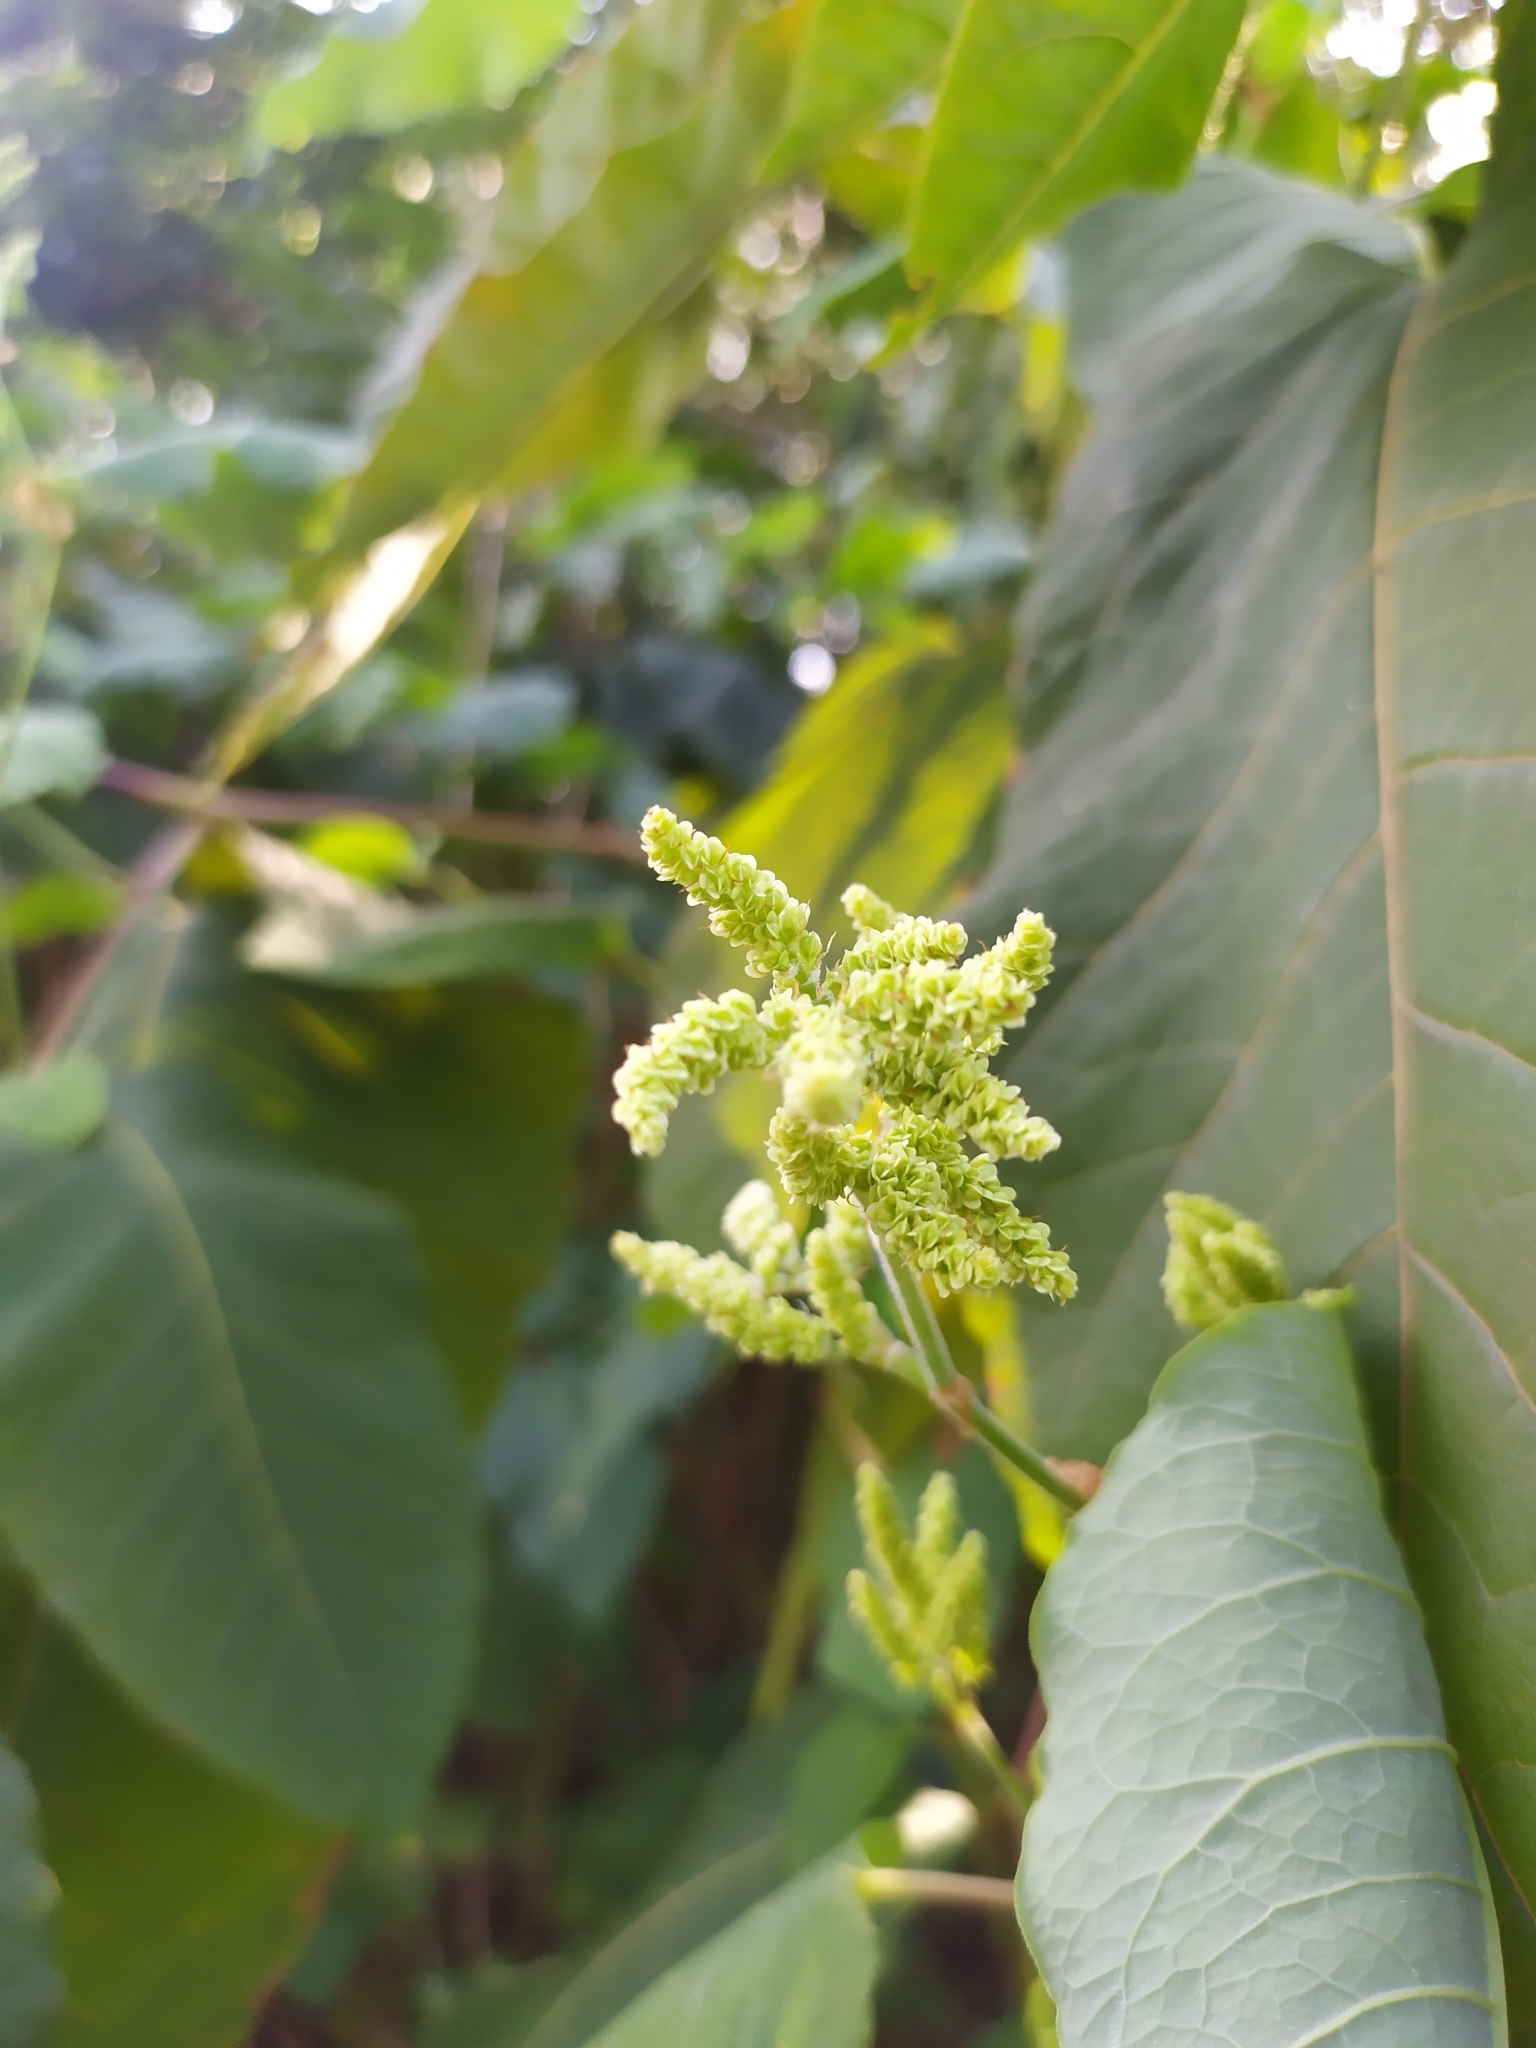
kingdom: Plantae
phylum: Tracheophyta
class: Magnoliopsida
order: Caryophyllales
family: Polygonaceae
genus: Reynoutria
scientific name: Reynoutria sachalinensis
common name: Giant knotweed
